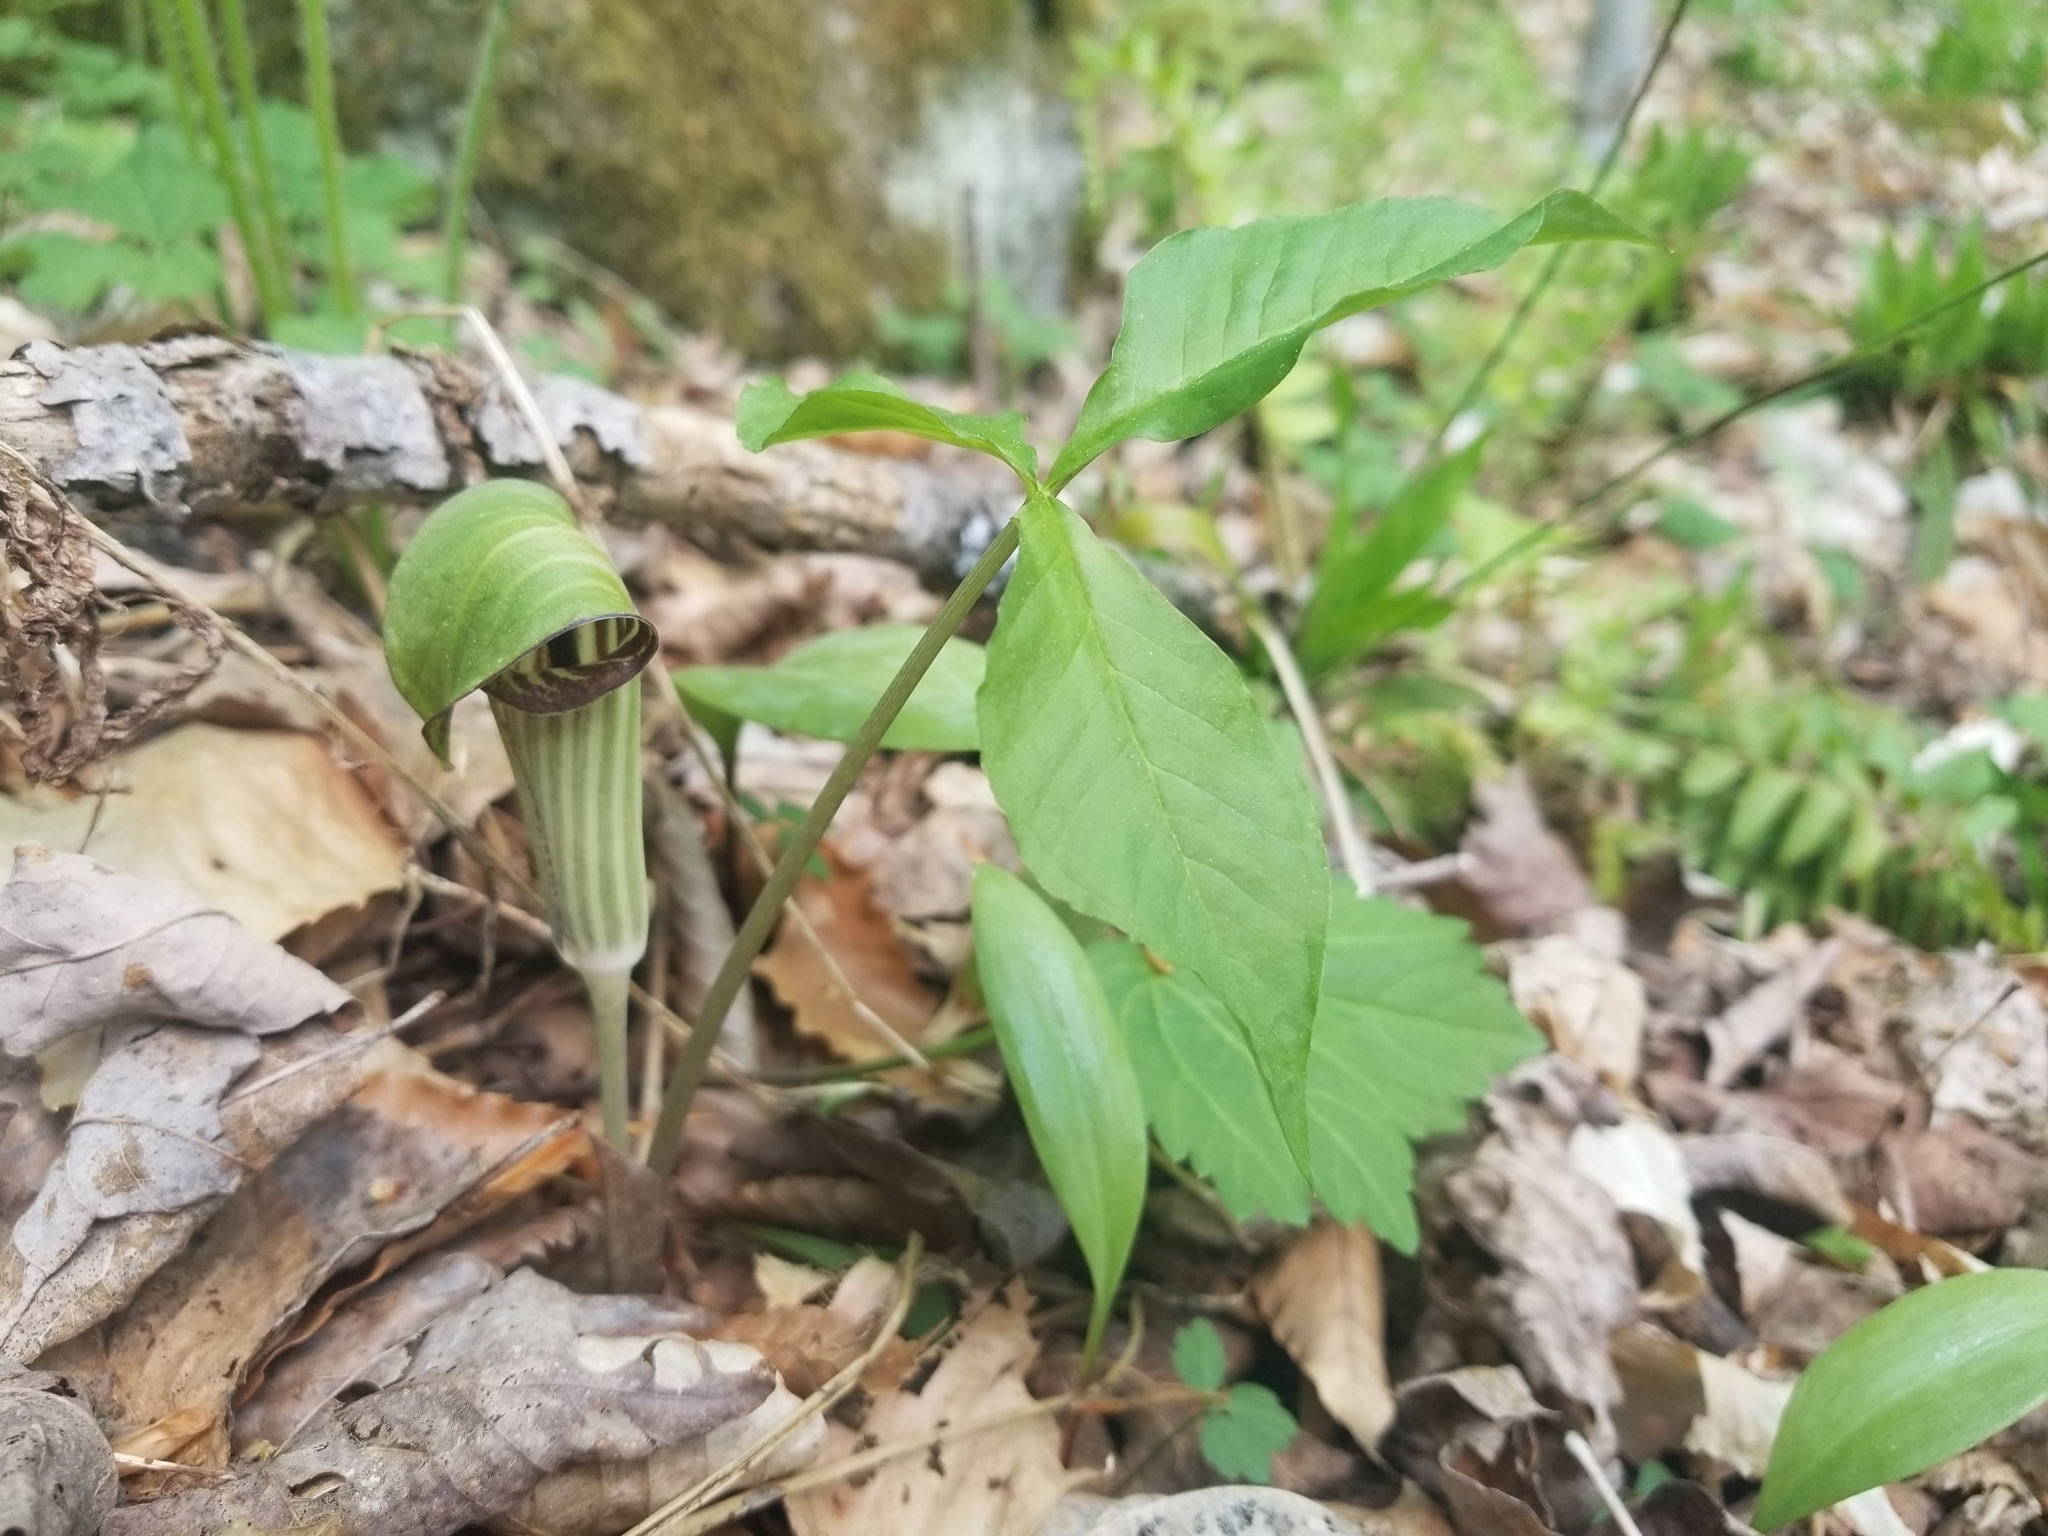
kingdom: Plantae
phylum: Tracheophyta
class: Liliopsida
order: Alismatales
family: Araceae
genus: Arisaema
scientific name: Arisaema triphyllum
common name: Jack-in-the-pulpit
